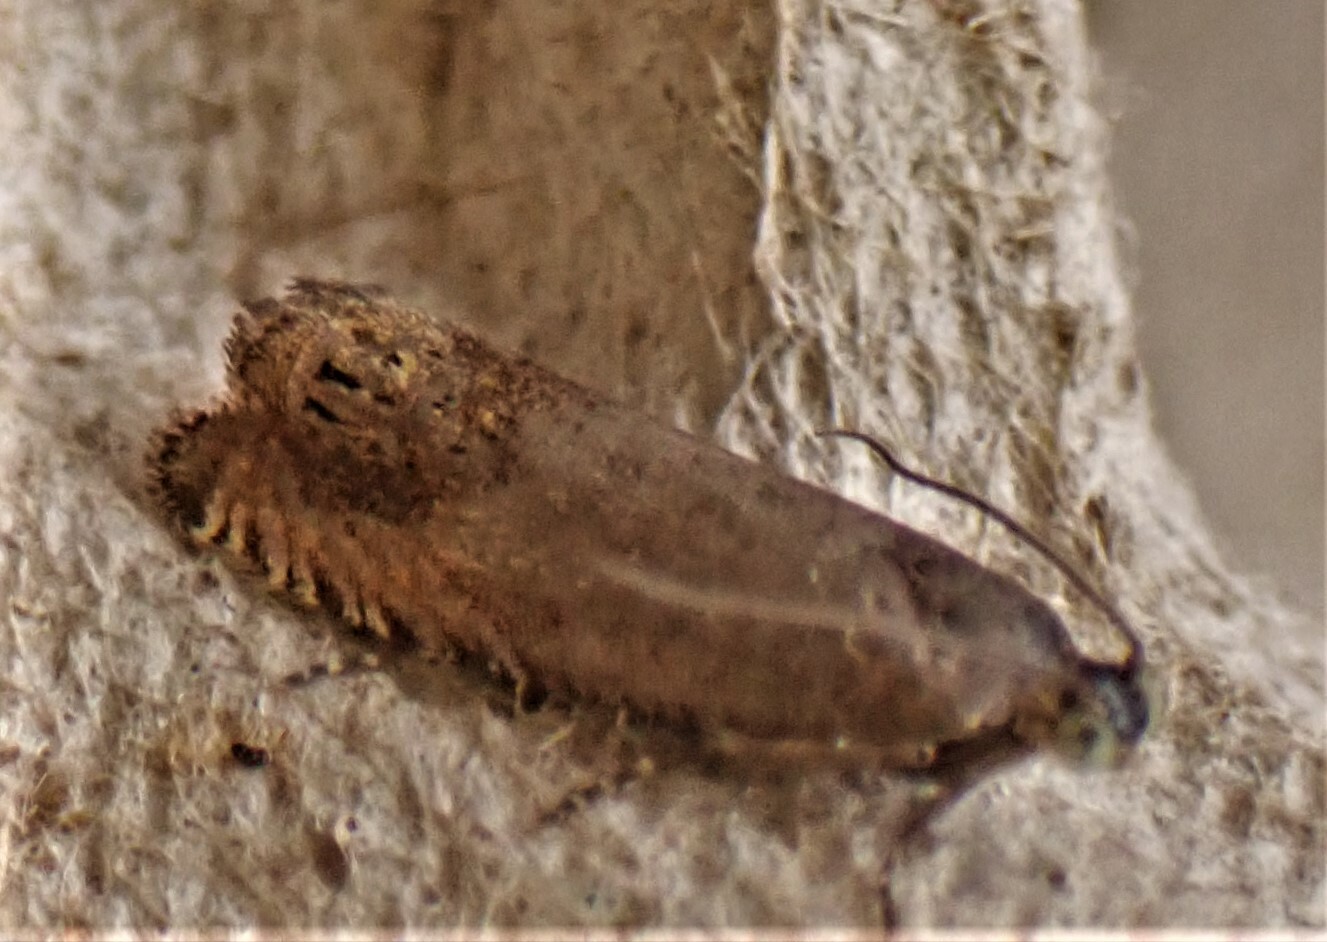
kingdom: Animalia
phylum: Arthropoda
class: Insecta
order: Lepidoptera
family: Tortricidae
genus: Cydia
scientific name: Cydia succedana
